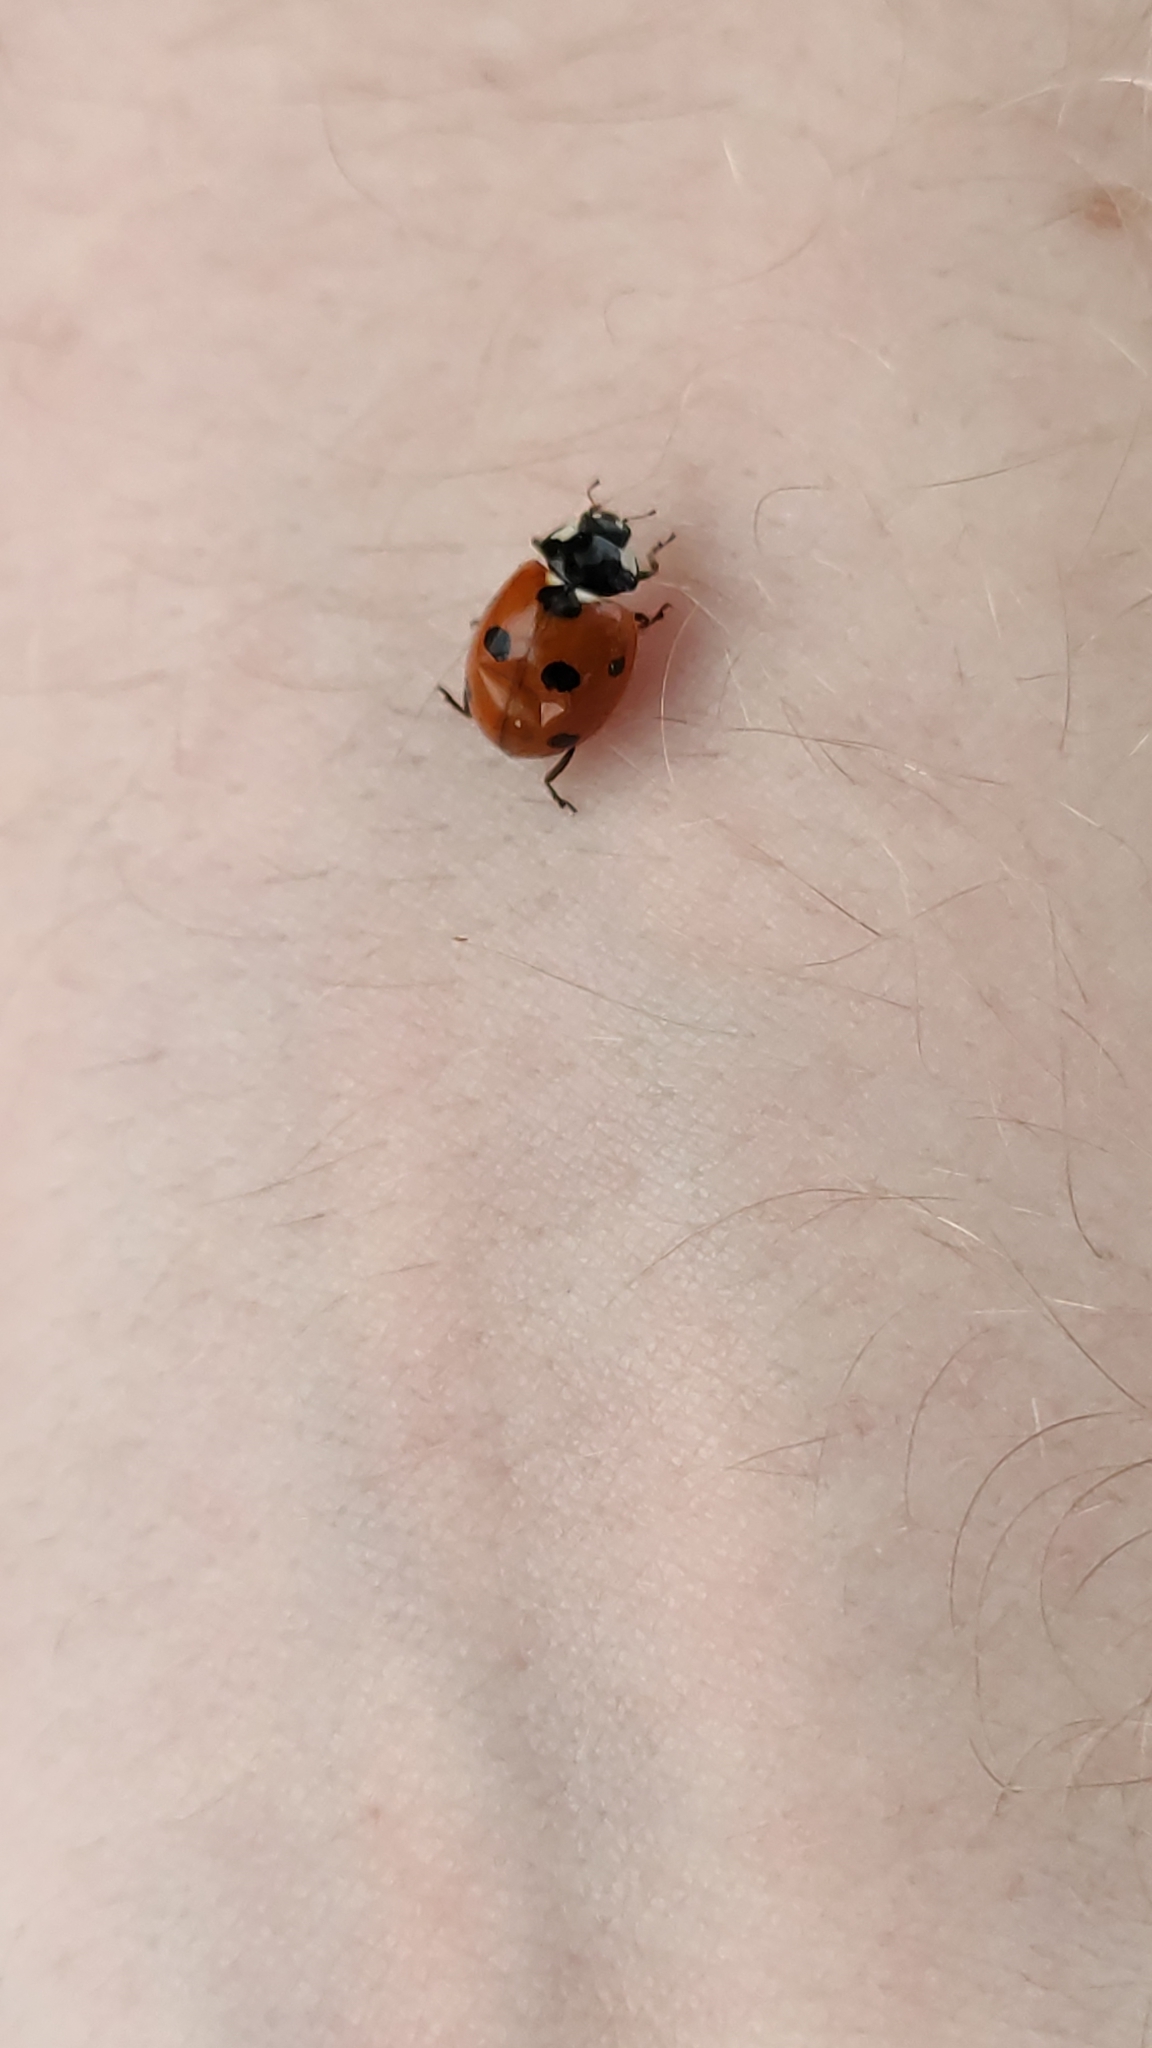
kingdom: Animalia
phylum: Arthropoda
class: Insecta
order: Coleoptera
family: Coccinellidae
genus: Coccinella
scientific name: Coccinella septempunctata
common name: Sevenspotted lady beetle
